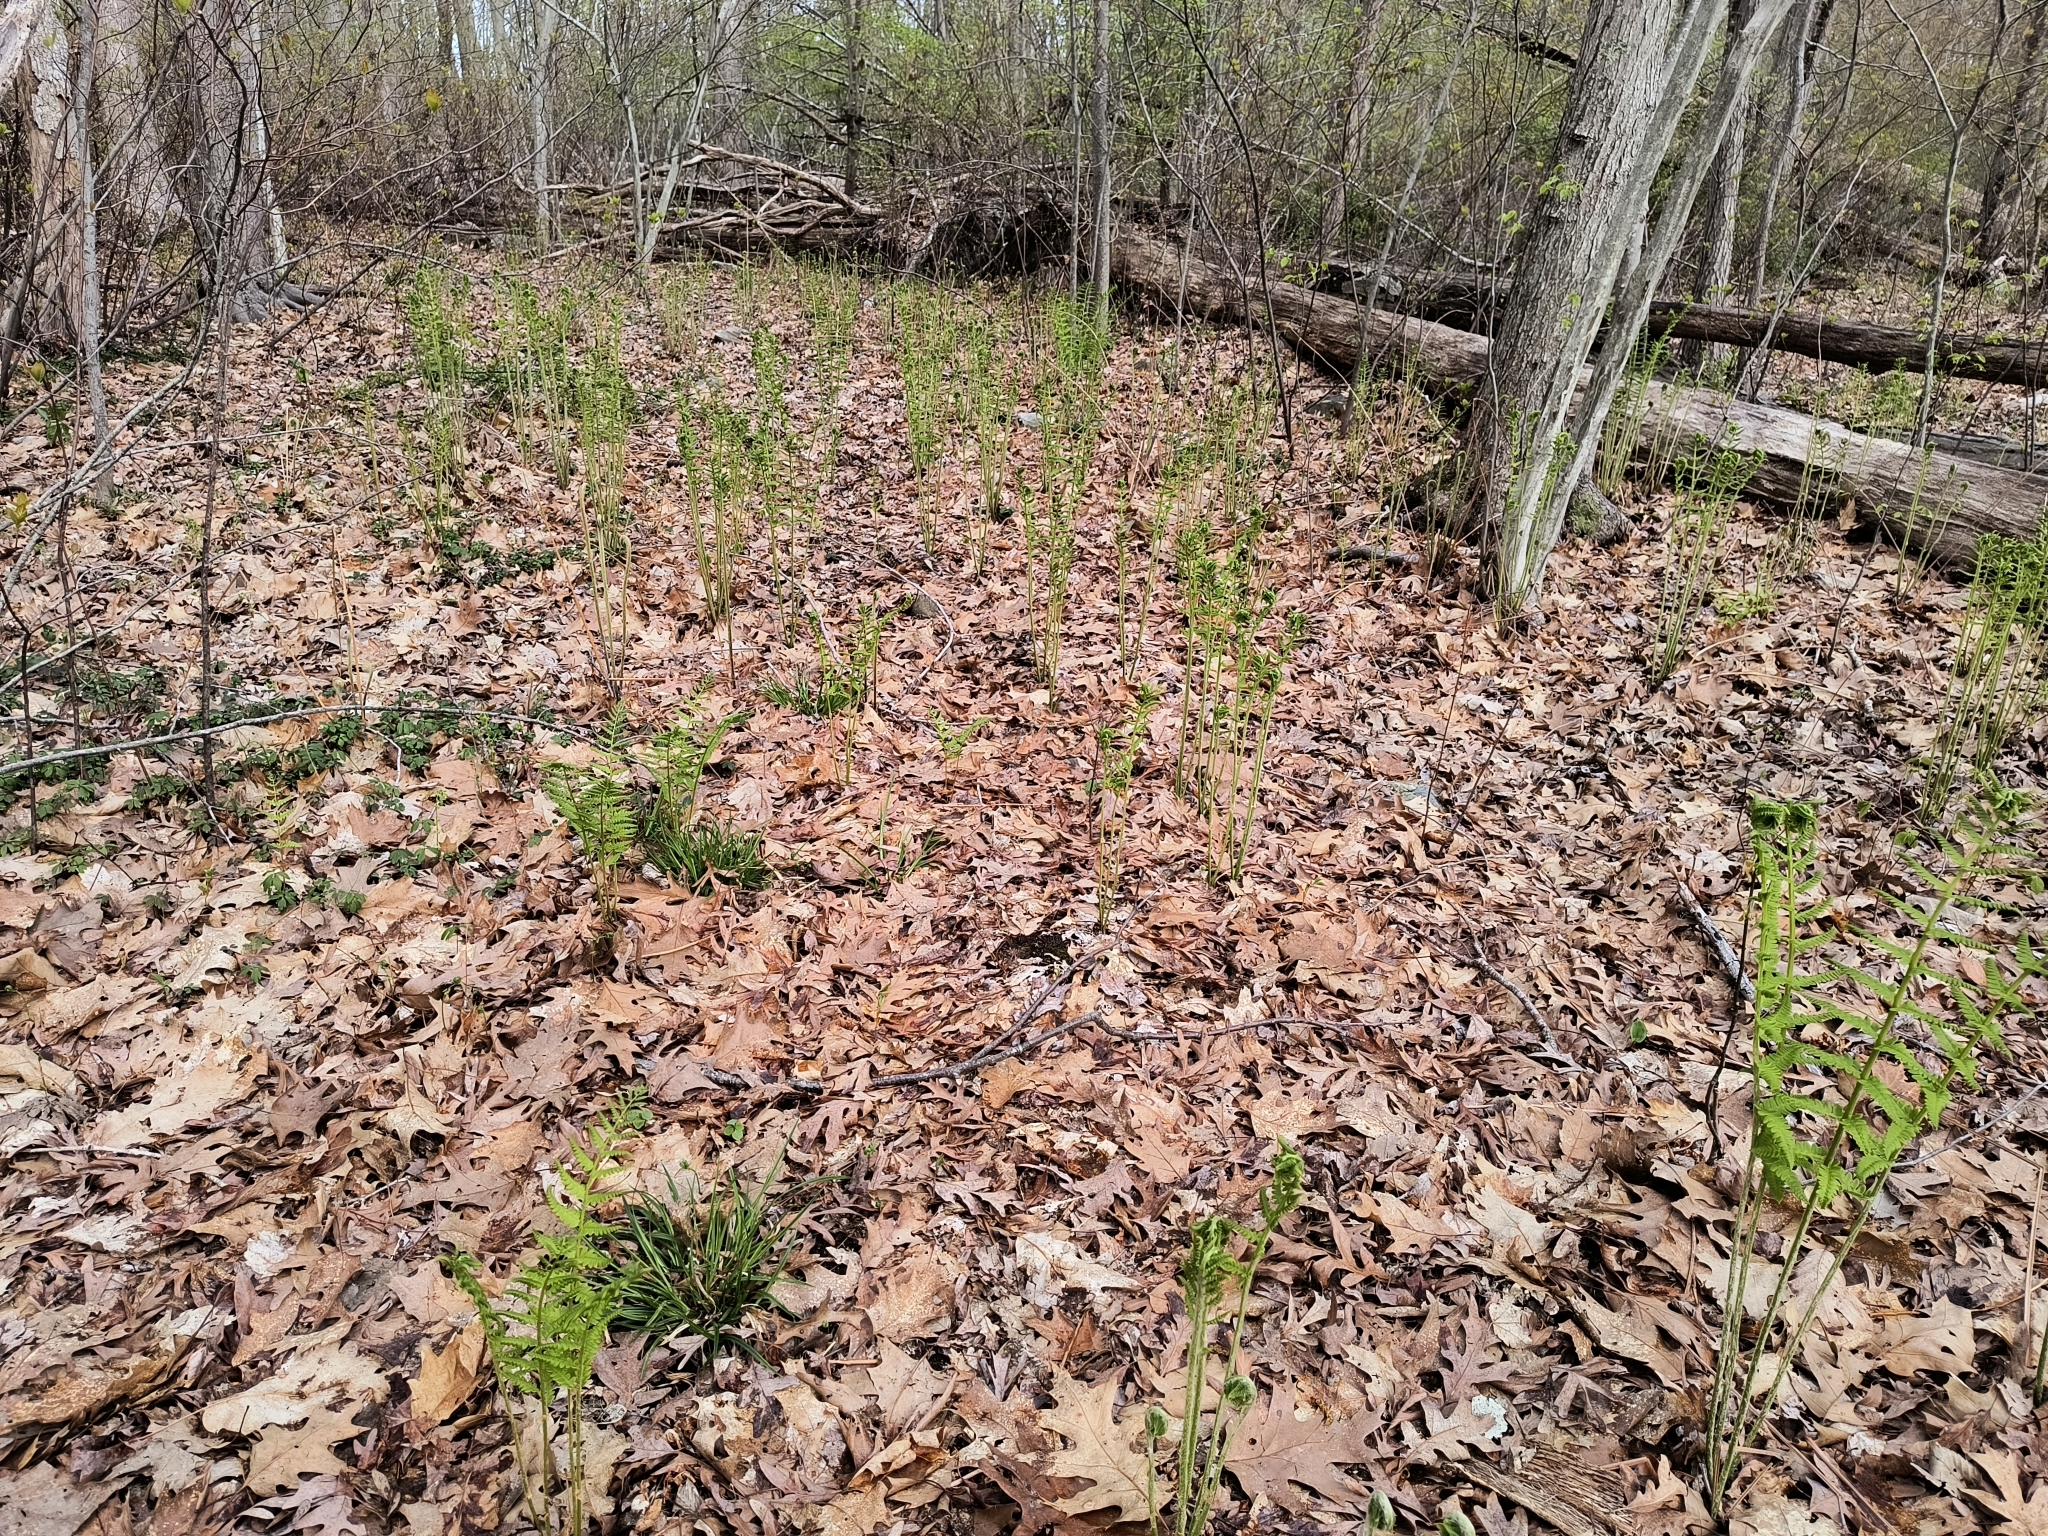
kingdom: Plantae
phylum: Tracheophyta
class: Polypodiopsida
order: Osmundales
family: Osmundaceae
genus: Osmundastrum
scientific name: Osmundastrum cinnamomeum
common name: Cinnamon fern
